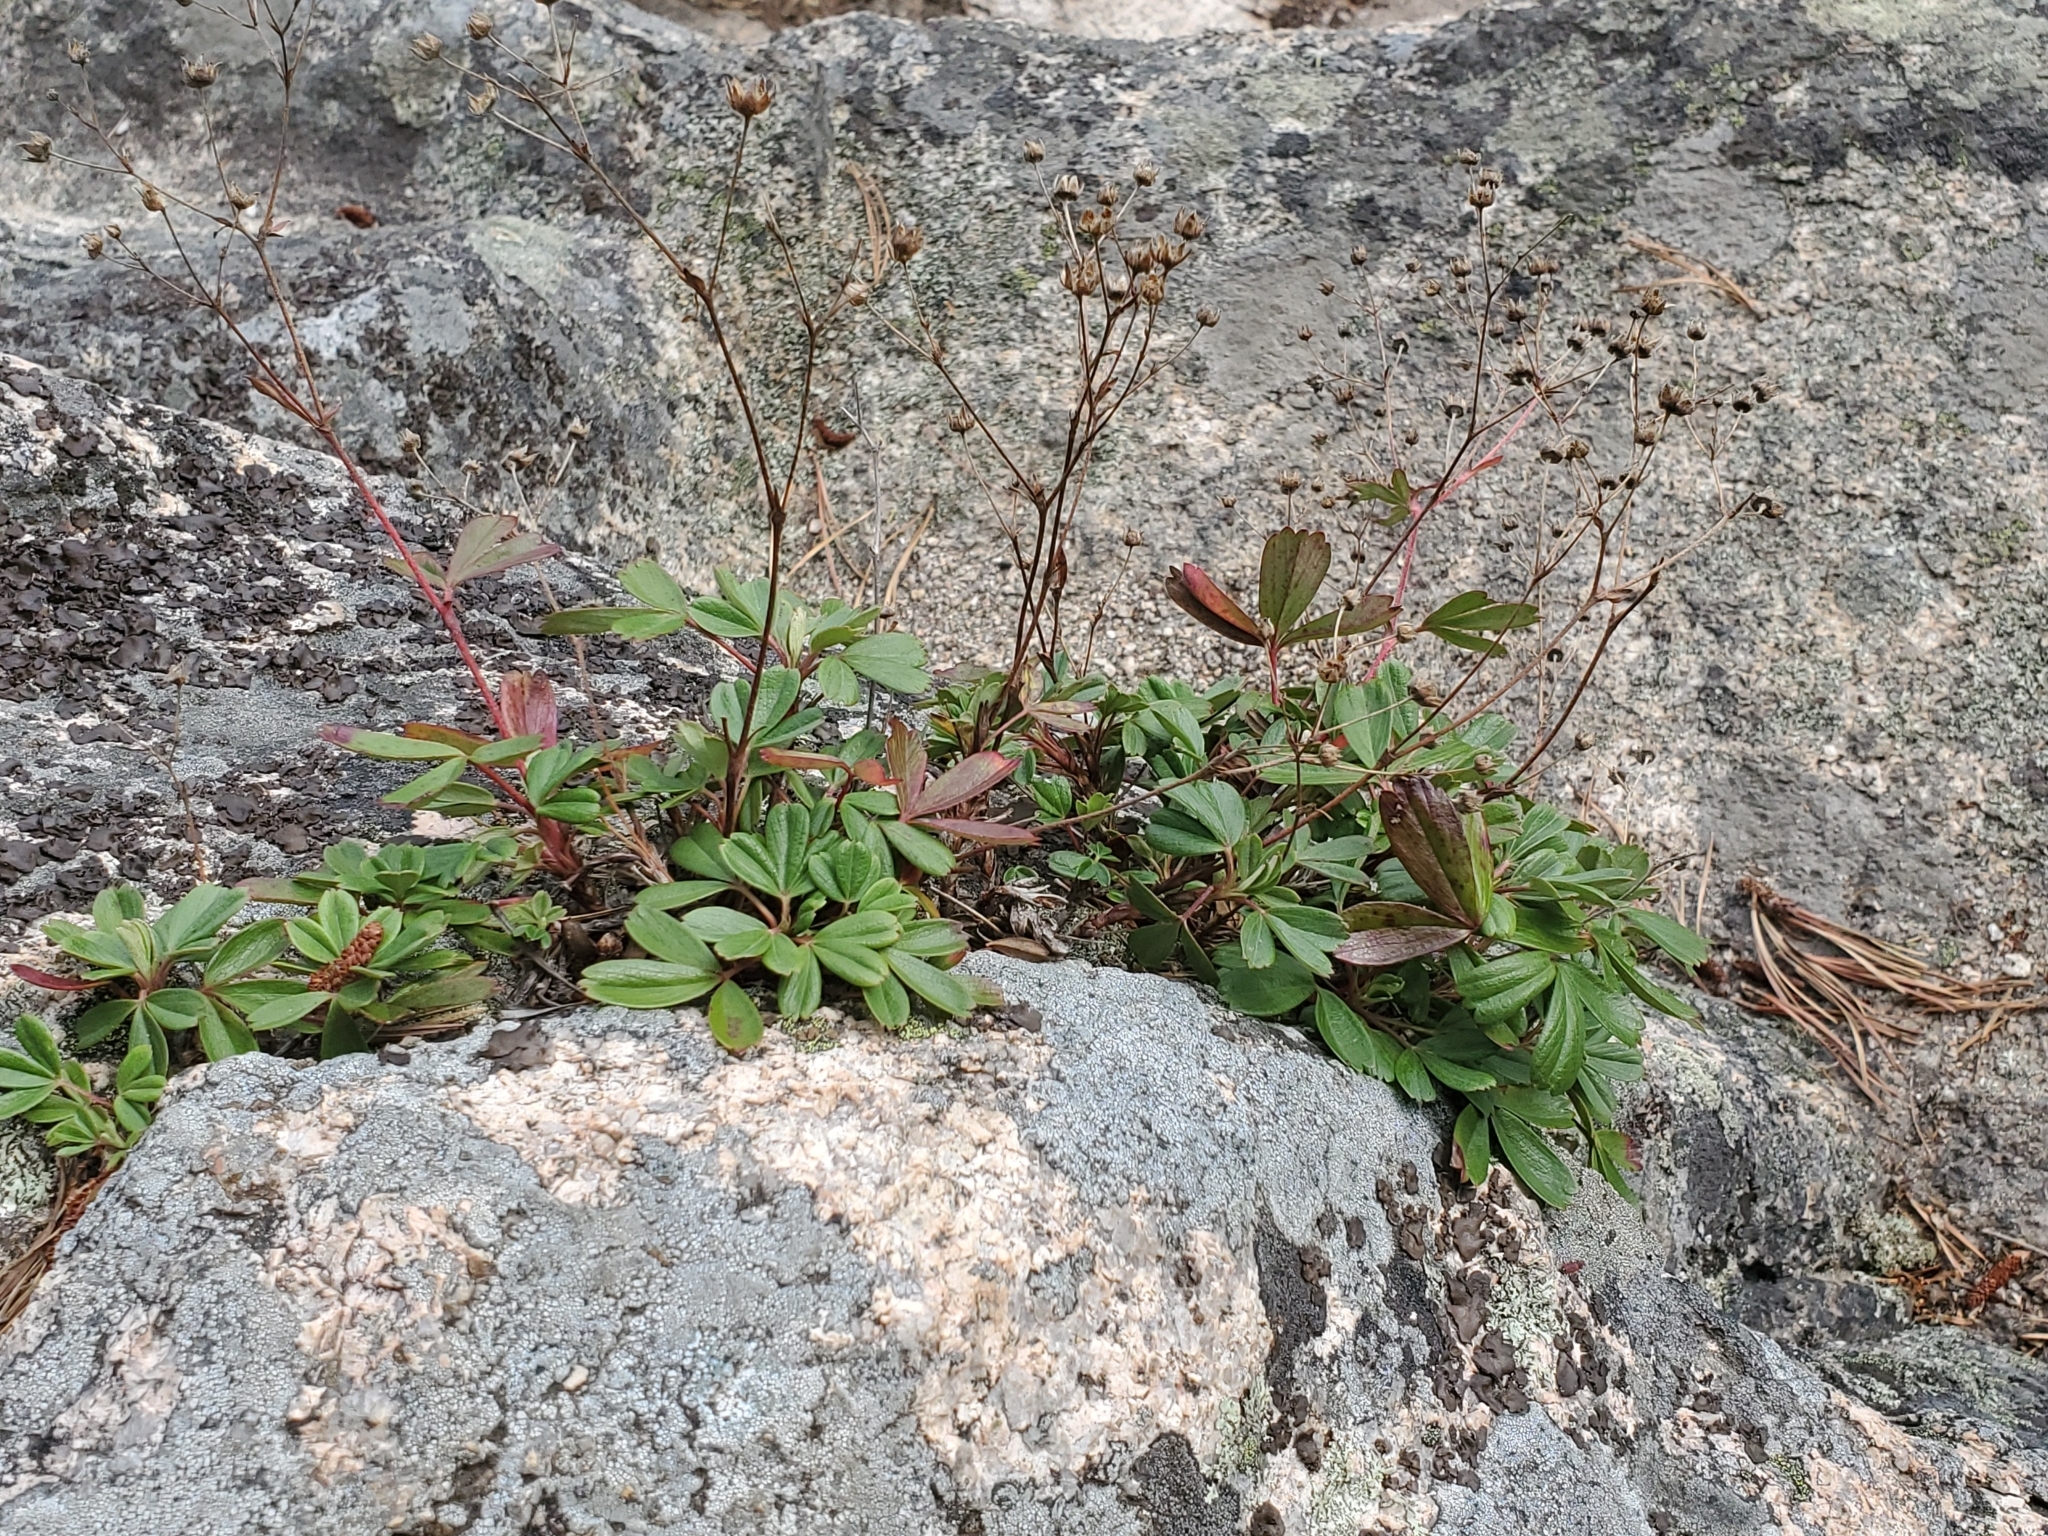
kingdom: Plantae
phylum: Tracheophyta
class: Magnoliopsida
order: Rosales
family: Rosaceae
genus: Sibbaldia
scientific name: Sibbaldia tridentata
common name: Three-toothed cinquefoil
